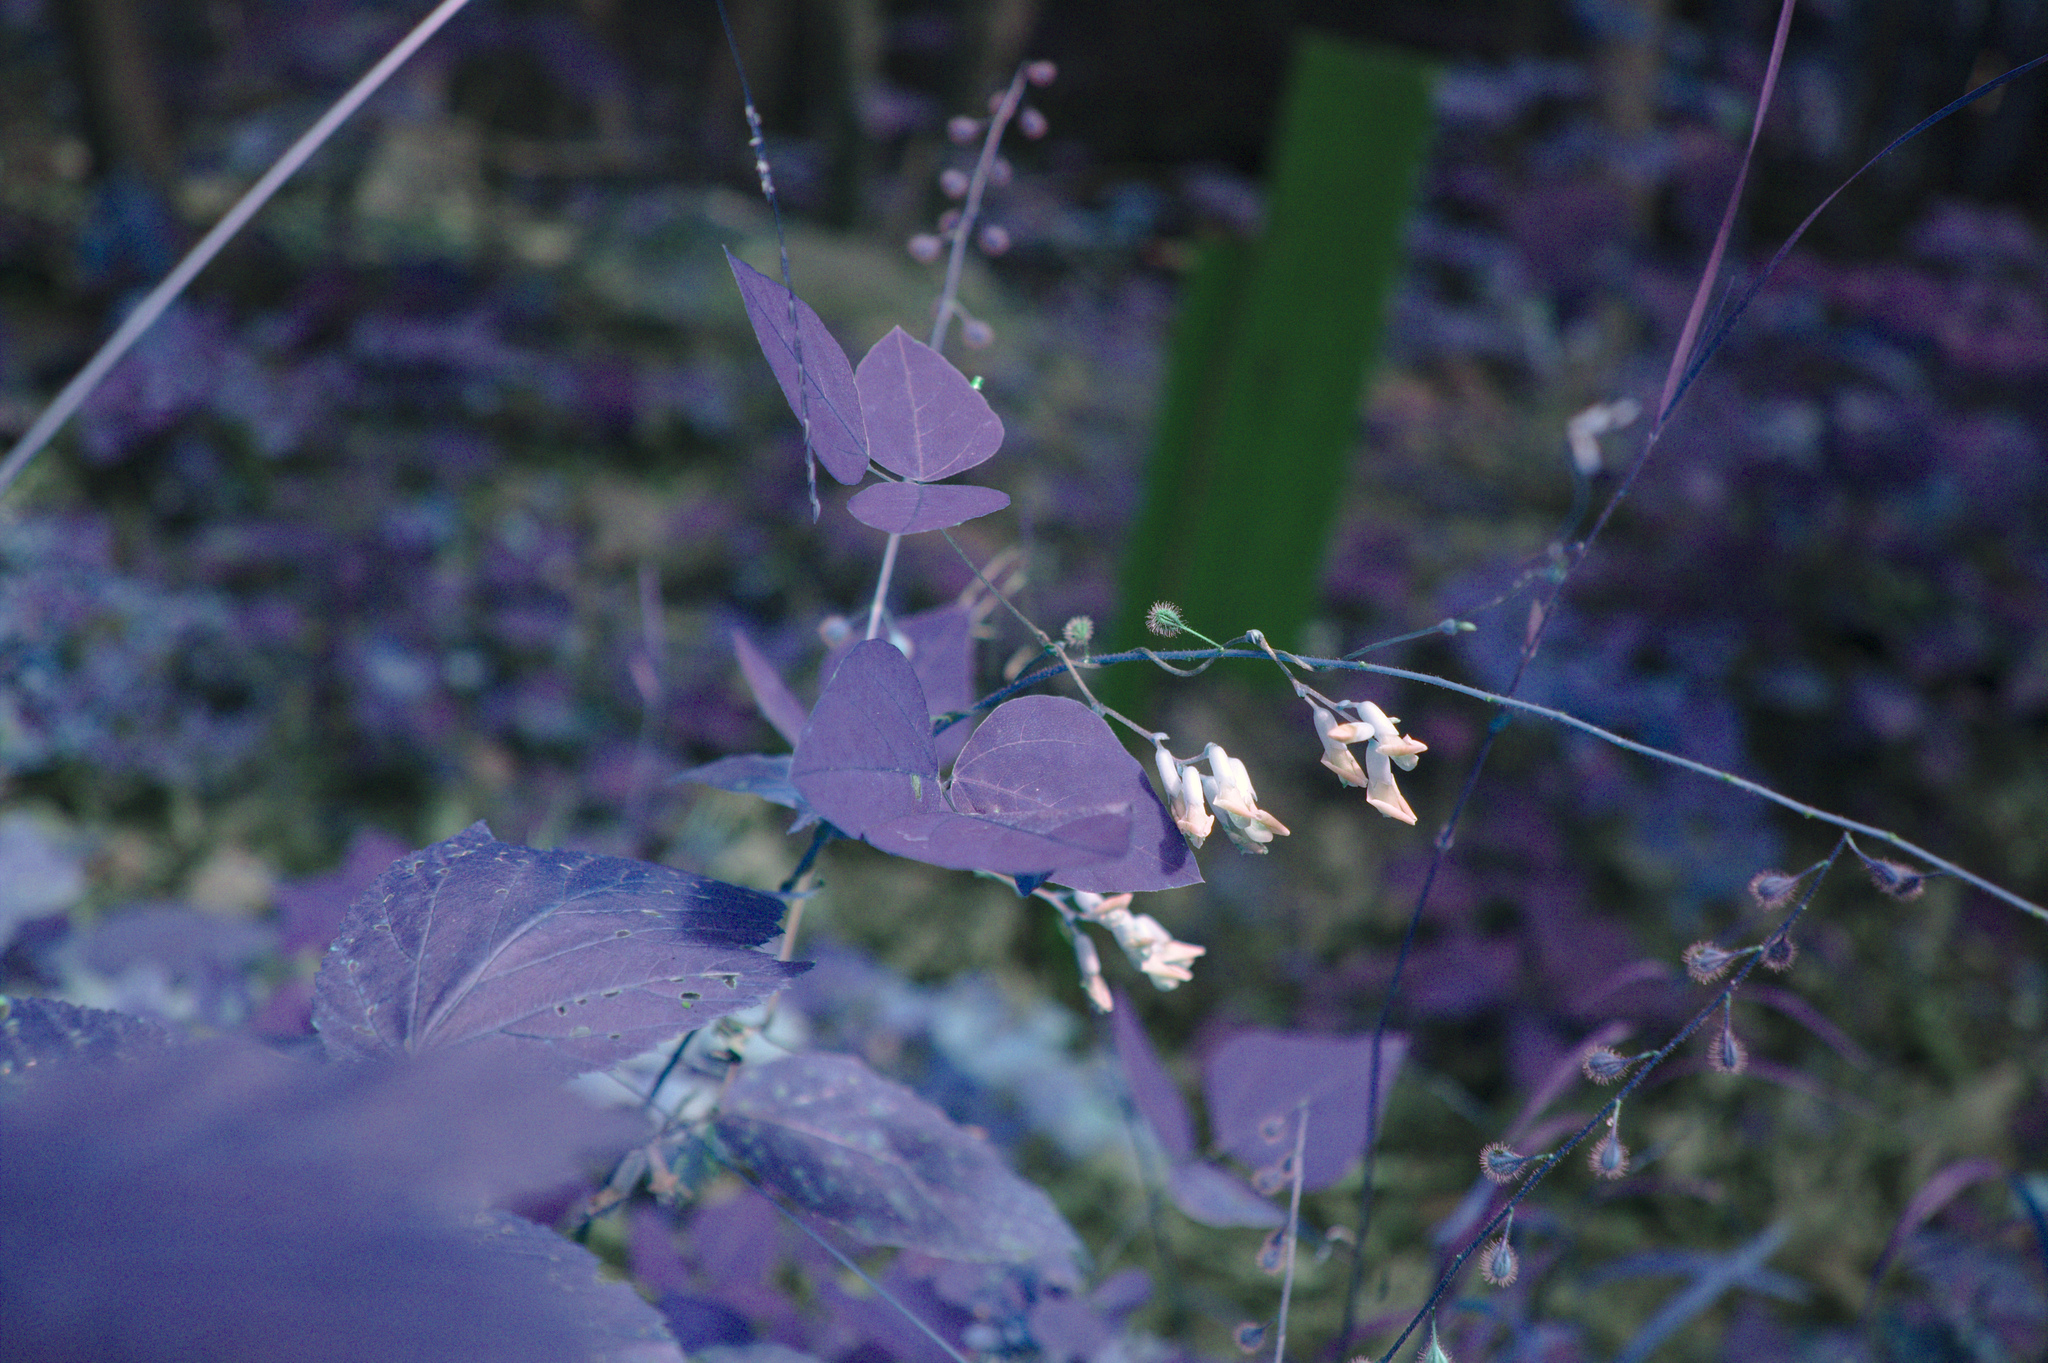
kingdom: Plantae
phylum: Tracheophyta
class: Magnoliopsida
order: Fabales
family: Fabaceae
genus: Amphicarpaea
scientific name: Amphicarpaea bracteata
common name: American hog peanut
